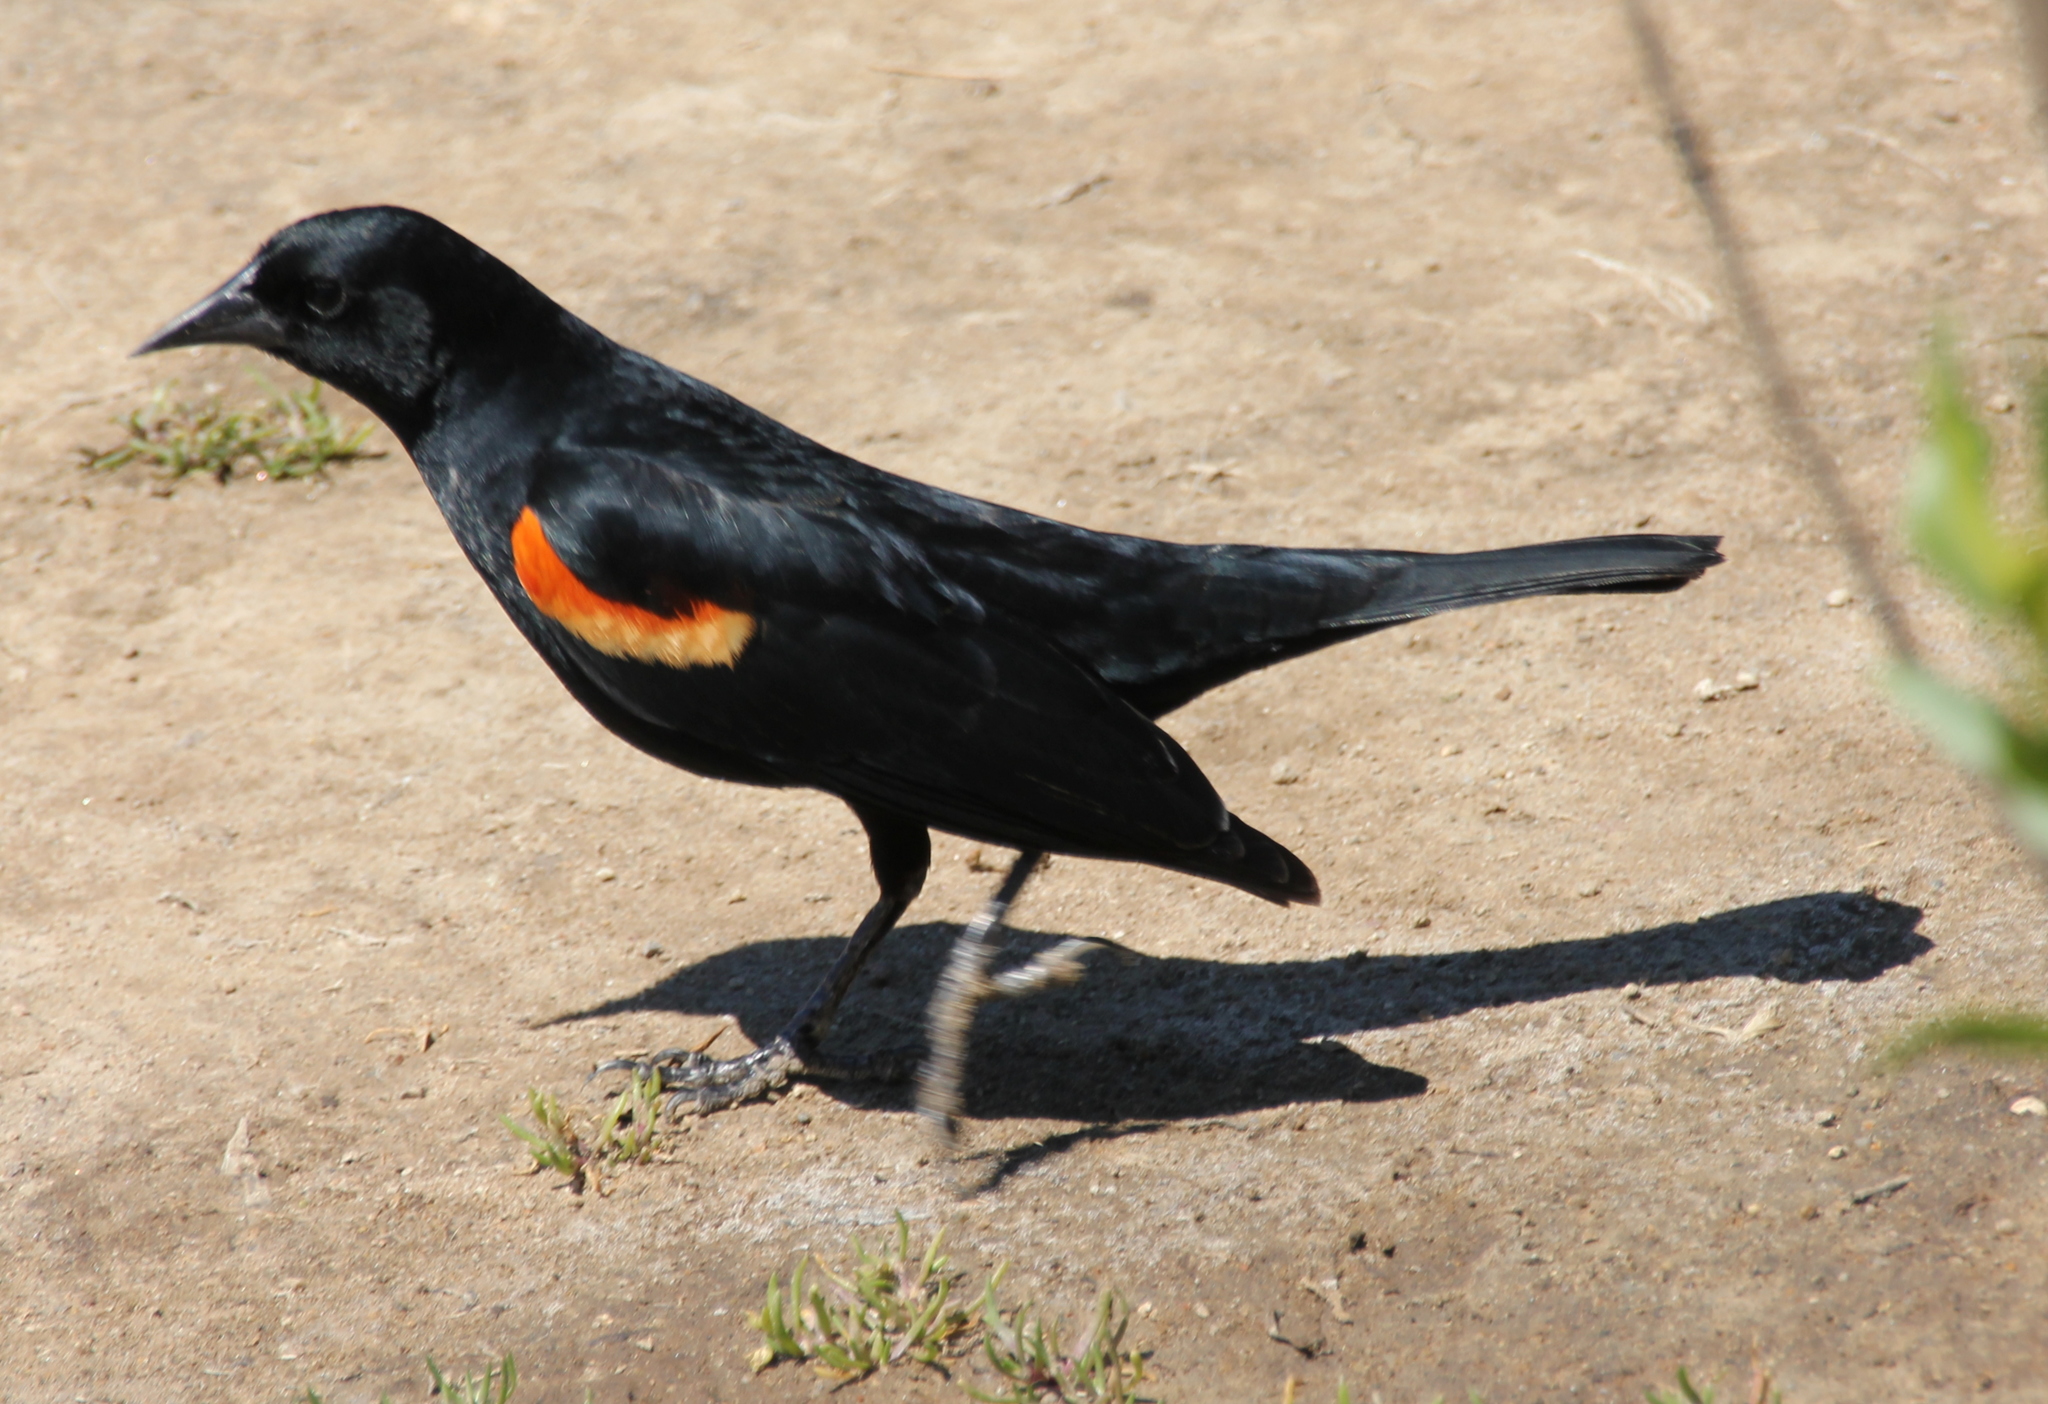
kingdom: Animalia
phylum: Chordata
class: Aves
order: Passeriformes
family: Icteridae
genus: Agelaius
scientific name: Agelaius phoeniceus
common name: Red-winged blackbird
